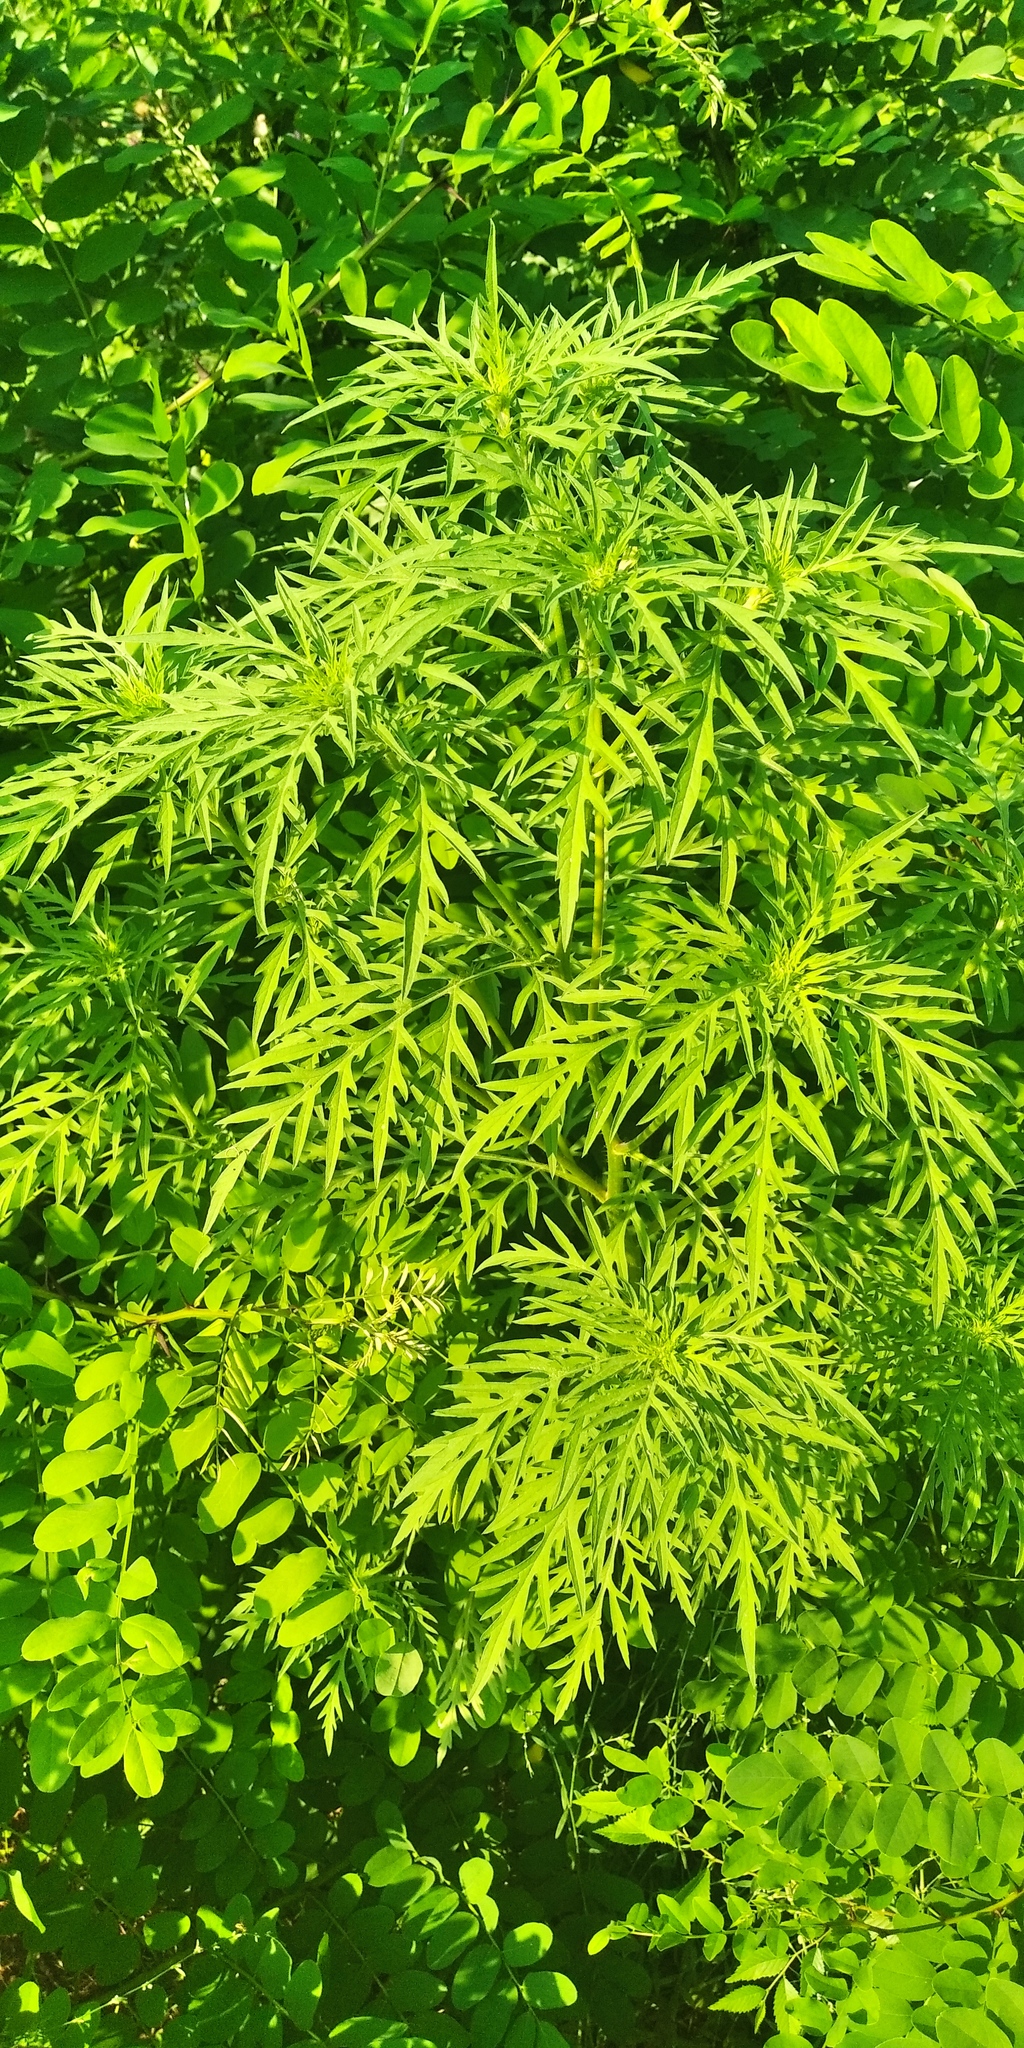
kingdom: Plantae
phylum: Tracheophyta
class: Magnoliopsida
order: Asterales
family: Asteraceae
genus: Ambrosia
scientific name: Ambrosia artemisiifolia
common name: Annual ragweed
